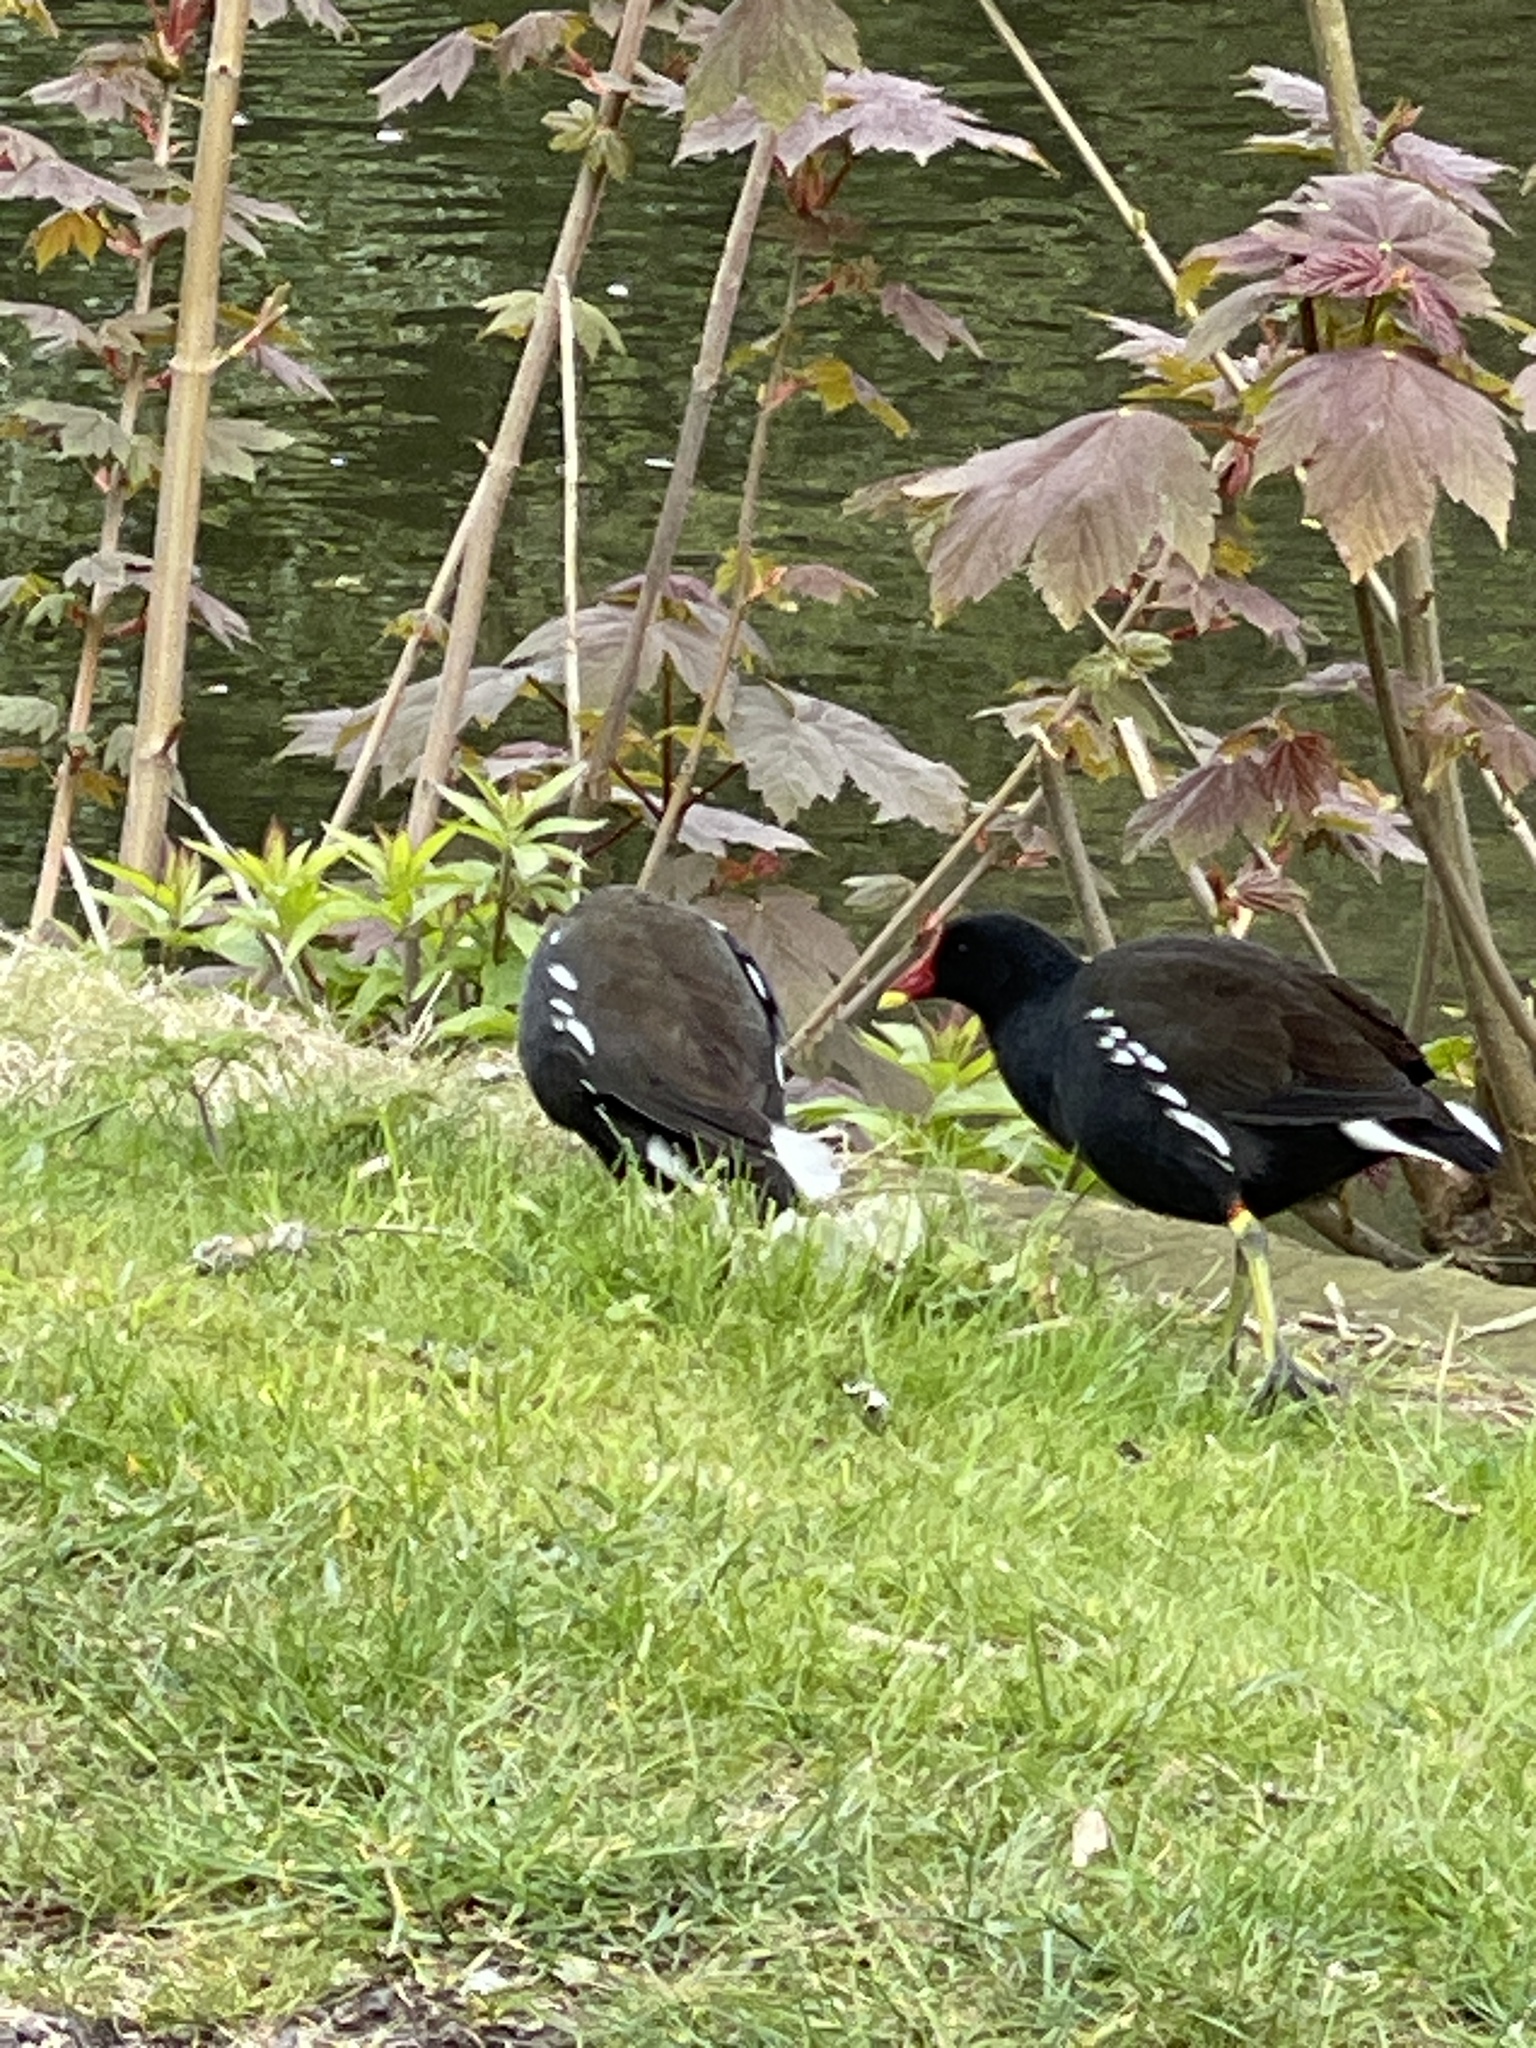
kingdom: Animalia
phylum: Chordata
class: Aves
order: Gruiformes
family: Rallidae
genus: Gallinula
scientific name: Gallinula chloropus
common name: Common moorhen
